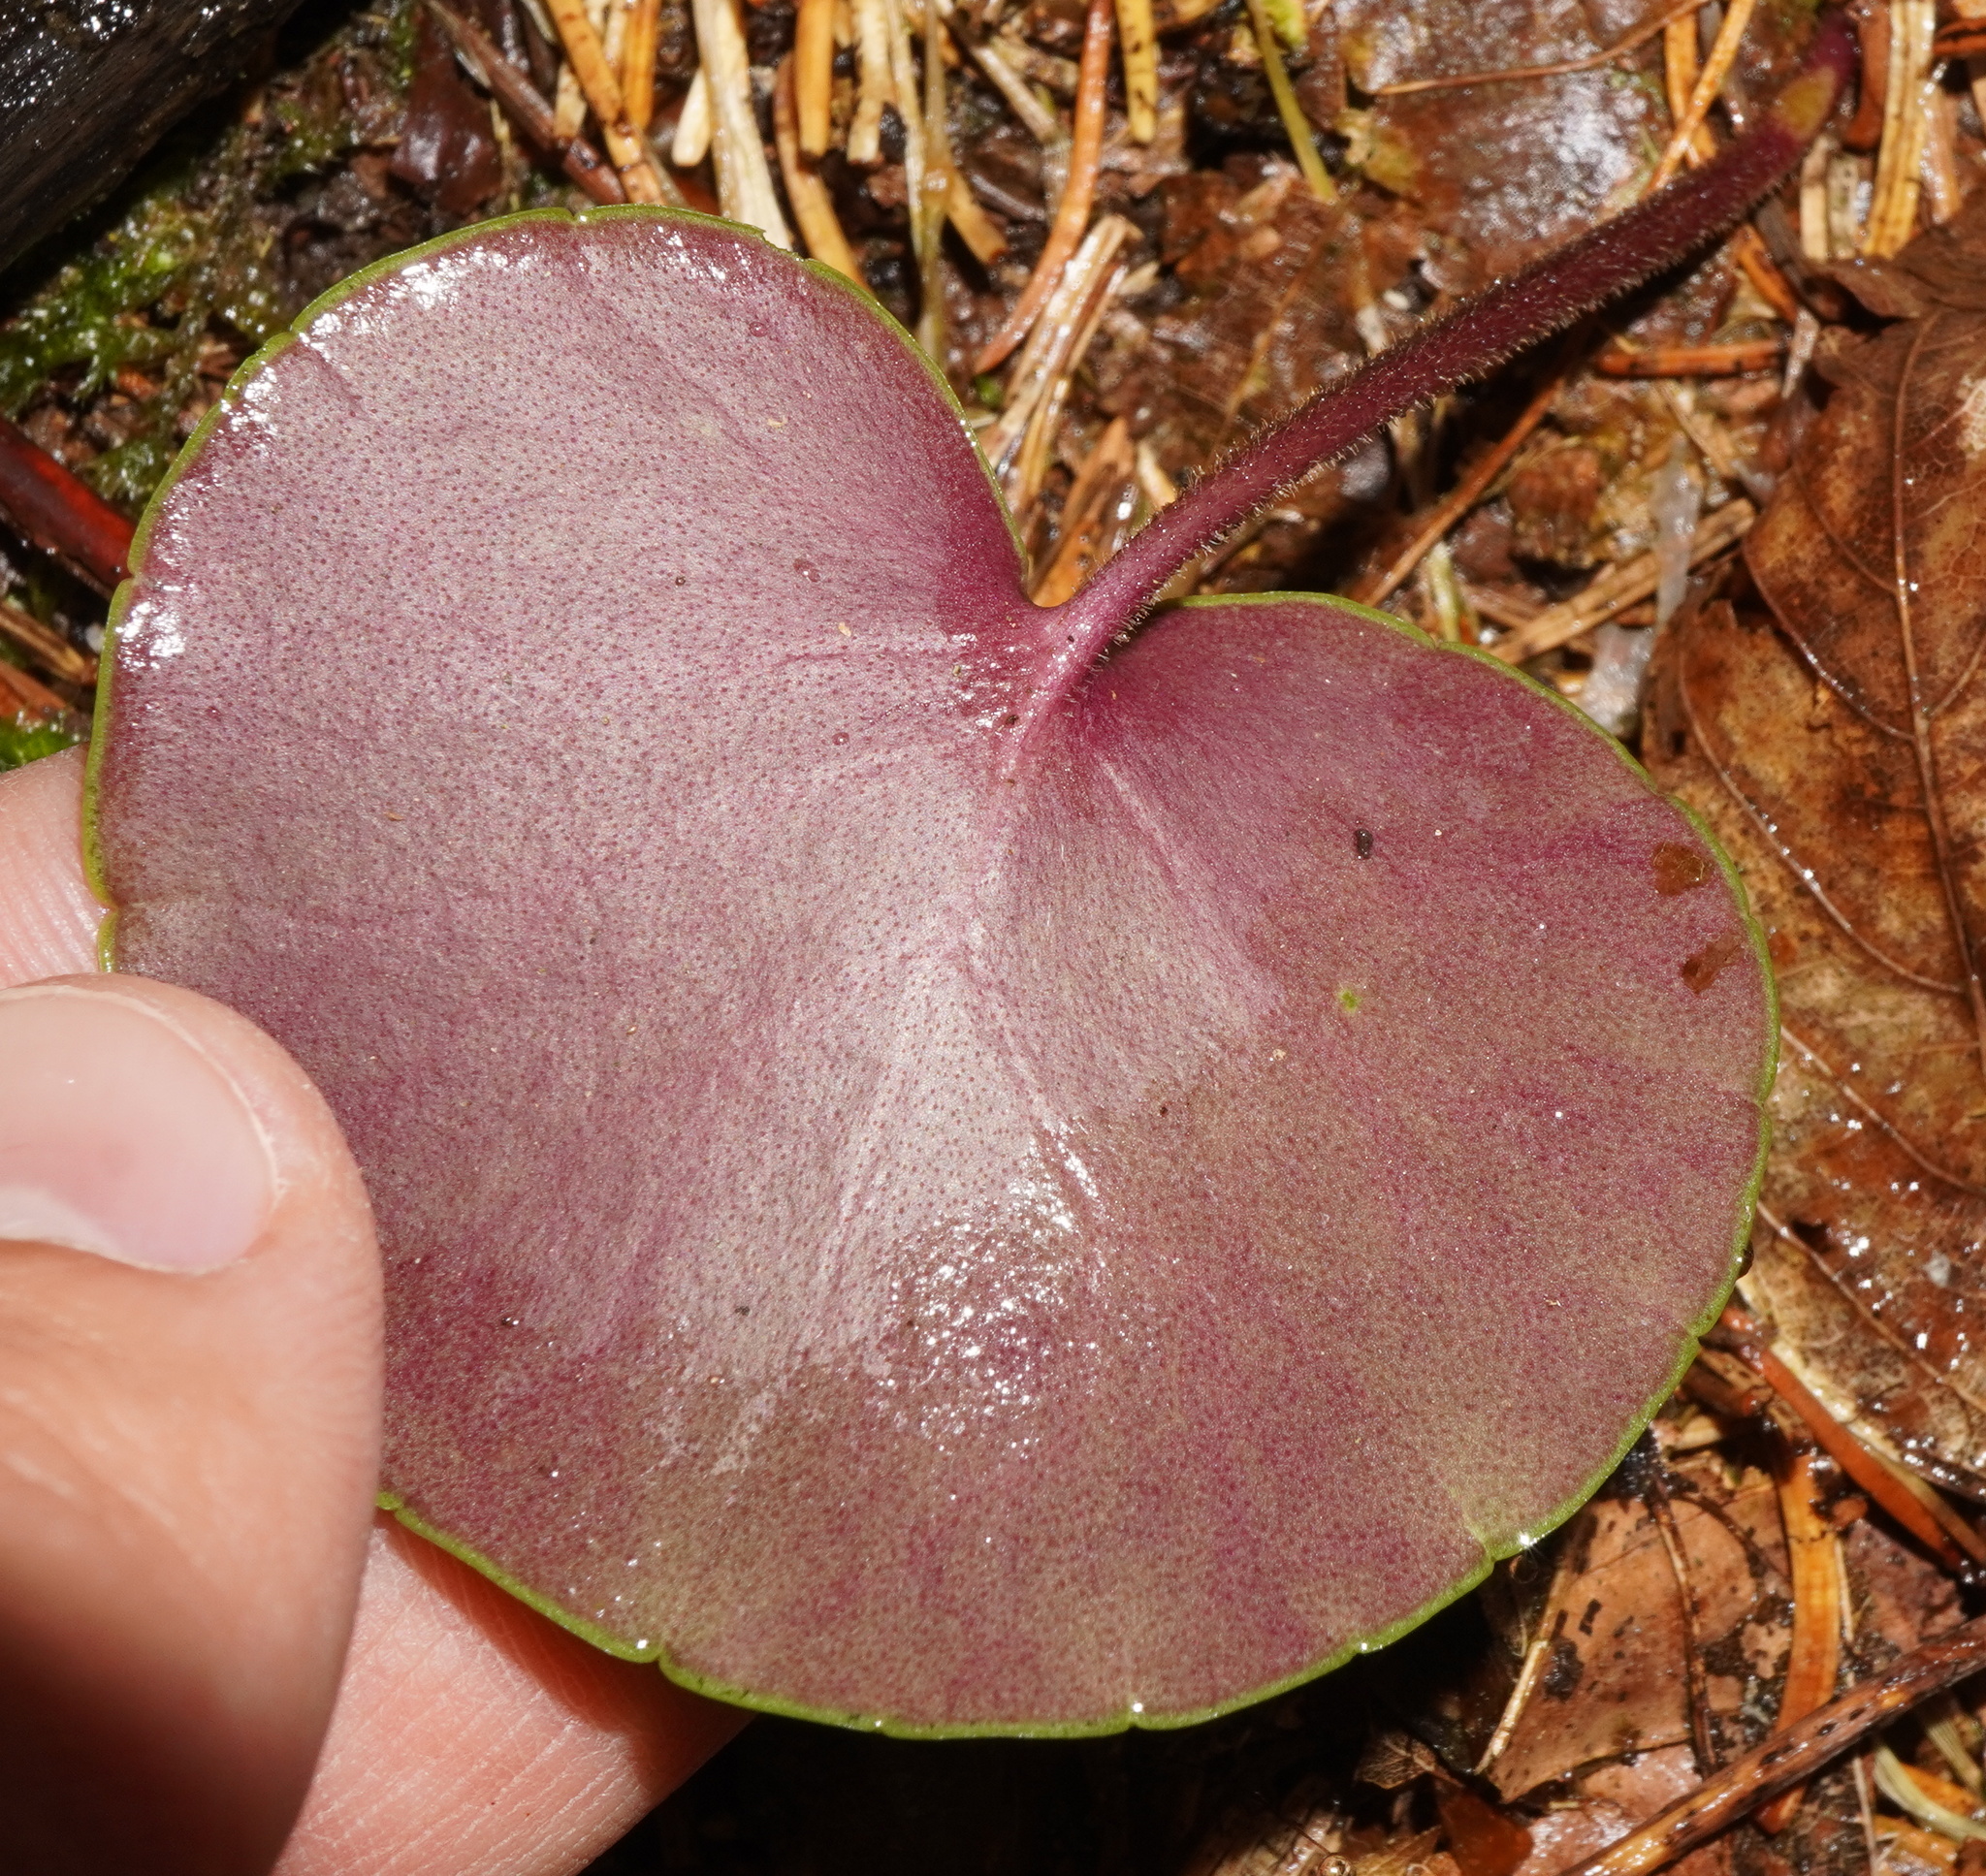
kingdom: Plantae
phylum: Tracheophyta
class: Magnoliopsida
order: Ericales
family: Primulaceae
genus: Soldanella
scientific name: Soldanella montana
